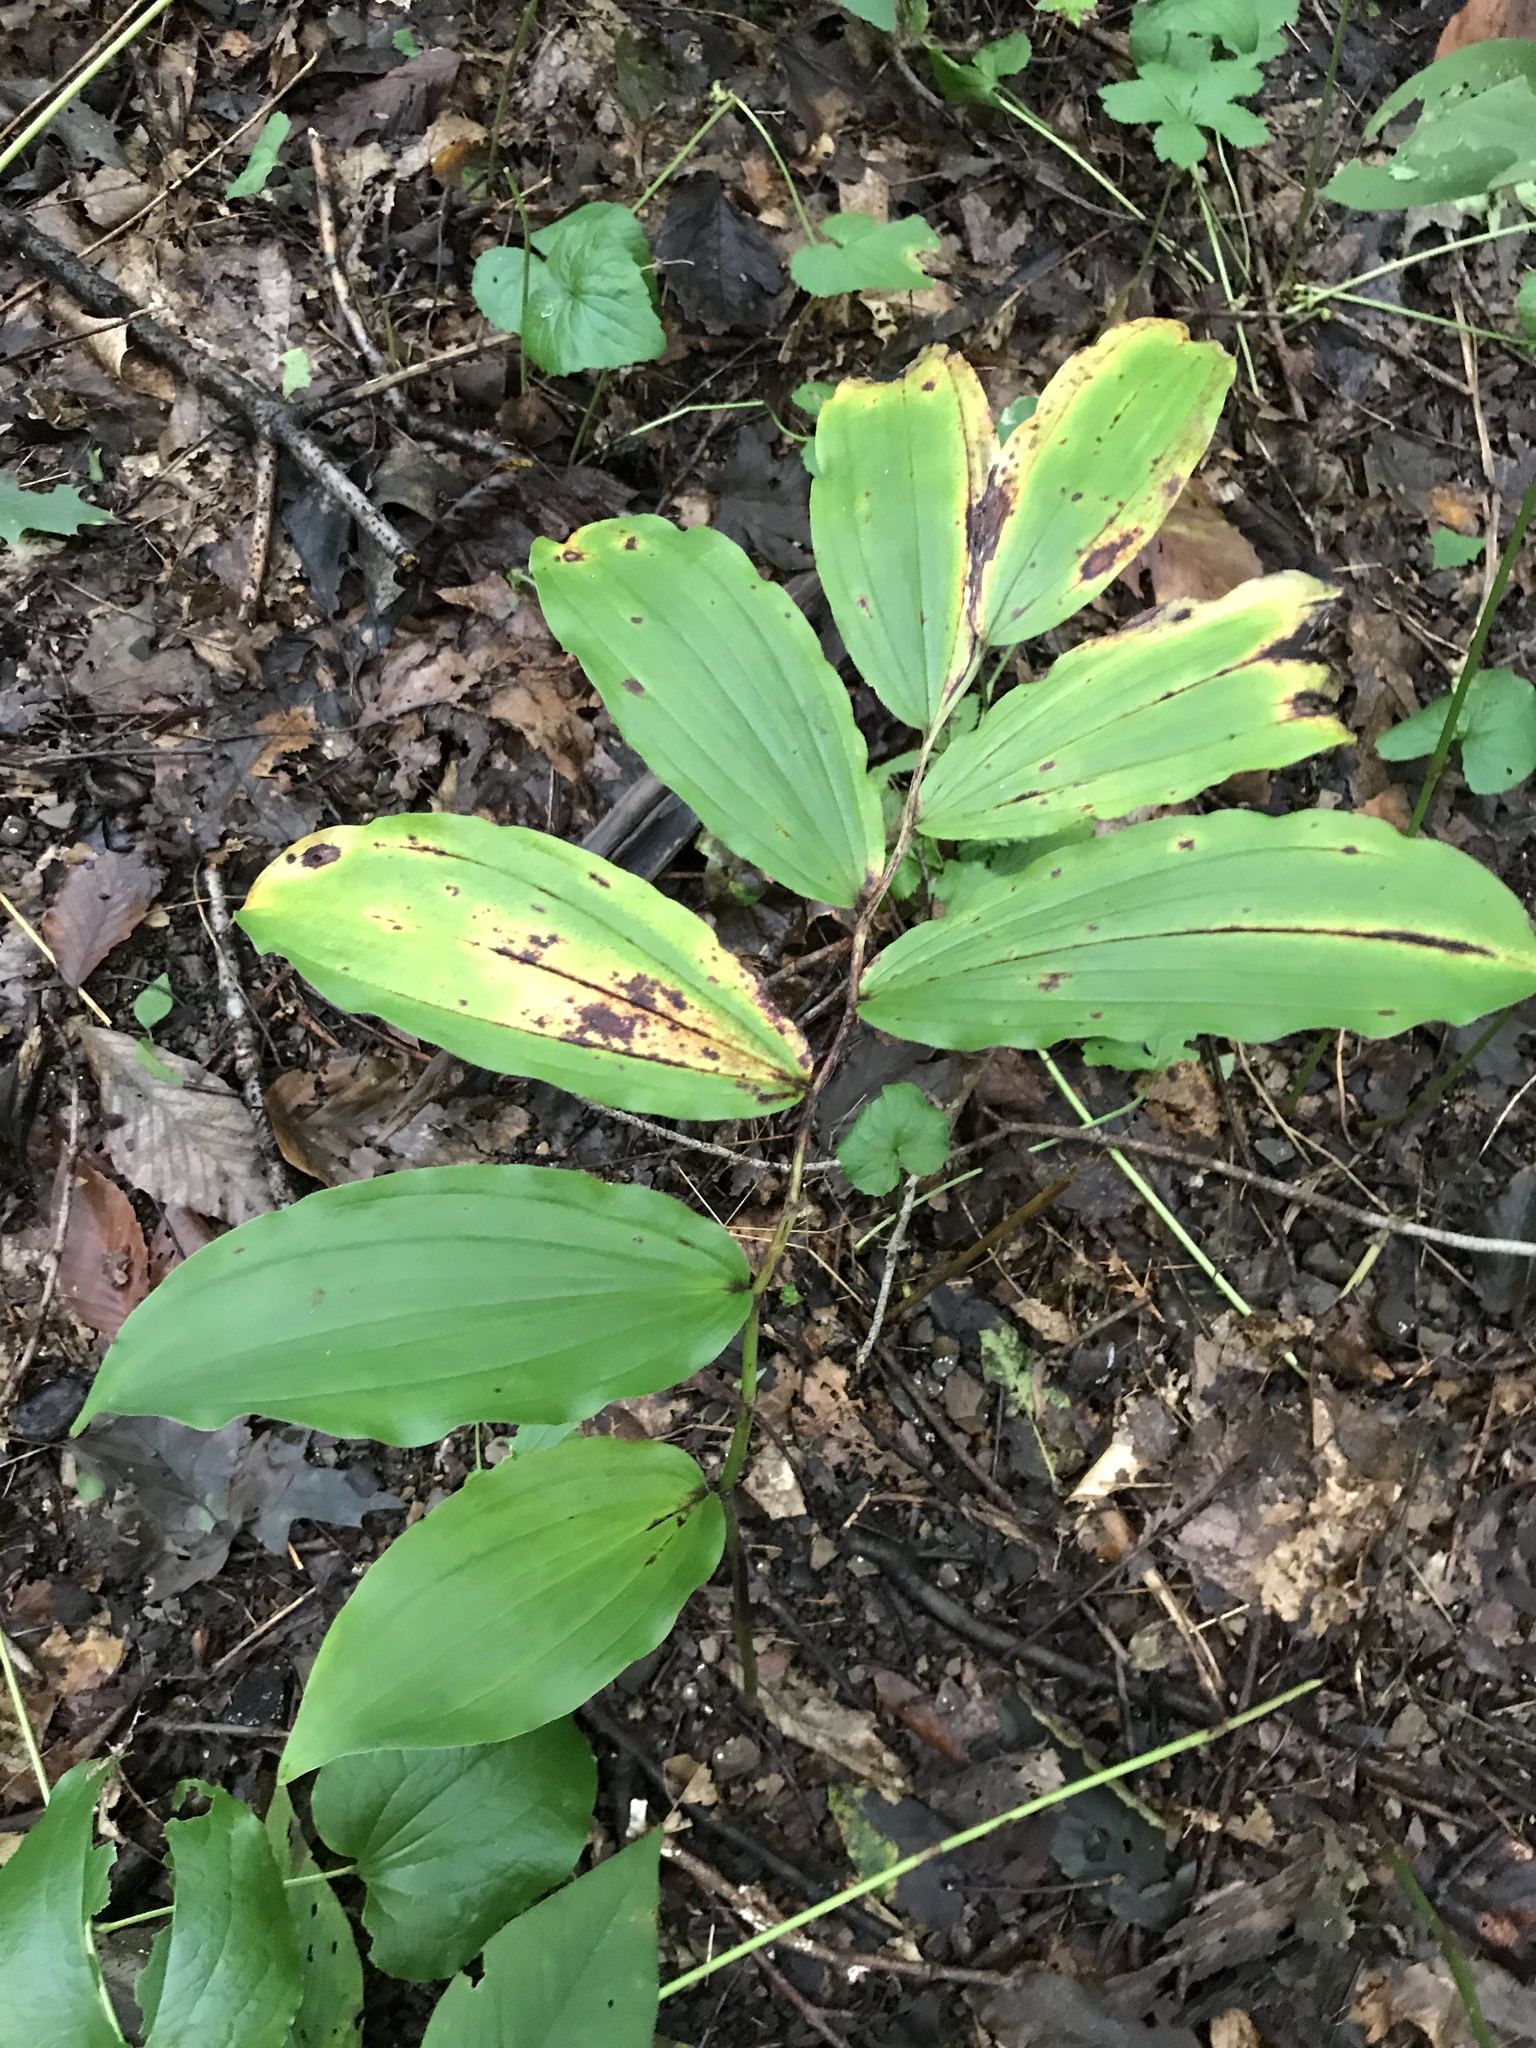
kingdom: Plantae
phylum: Tracheophyta
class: Liliopsida
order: Asparagales
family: Asparagaceae
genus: Maianthemum
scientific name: Maianthemum racemosum
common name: False spikenard
